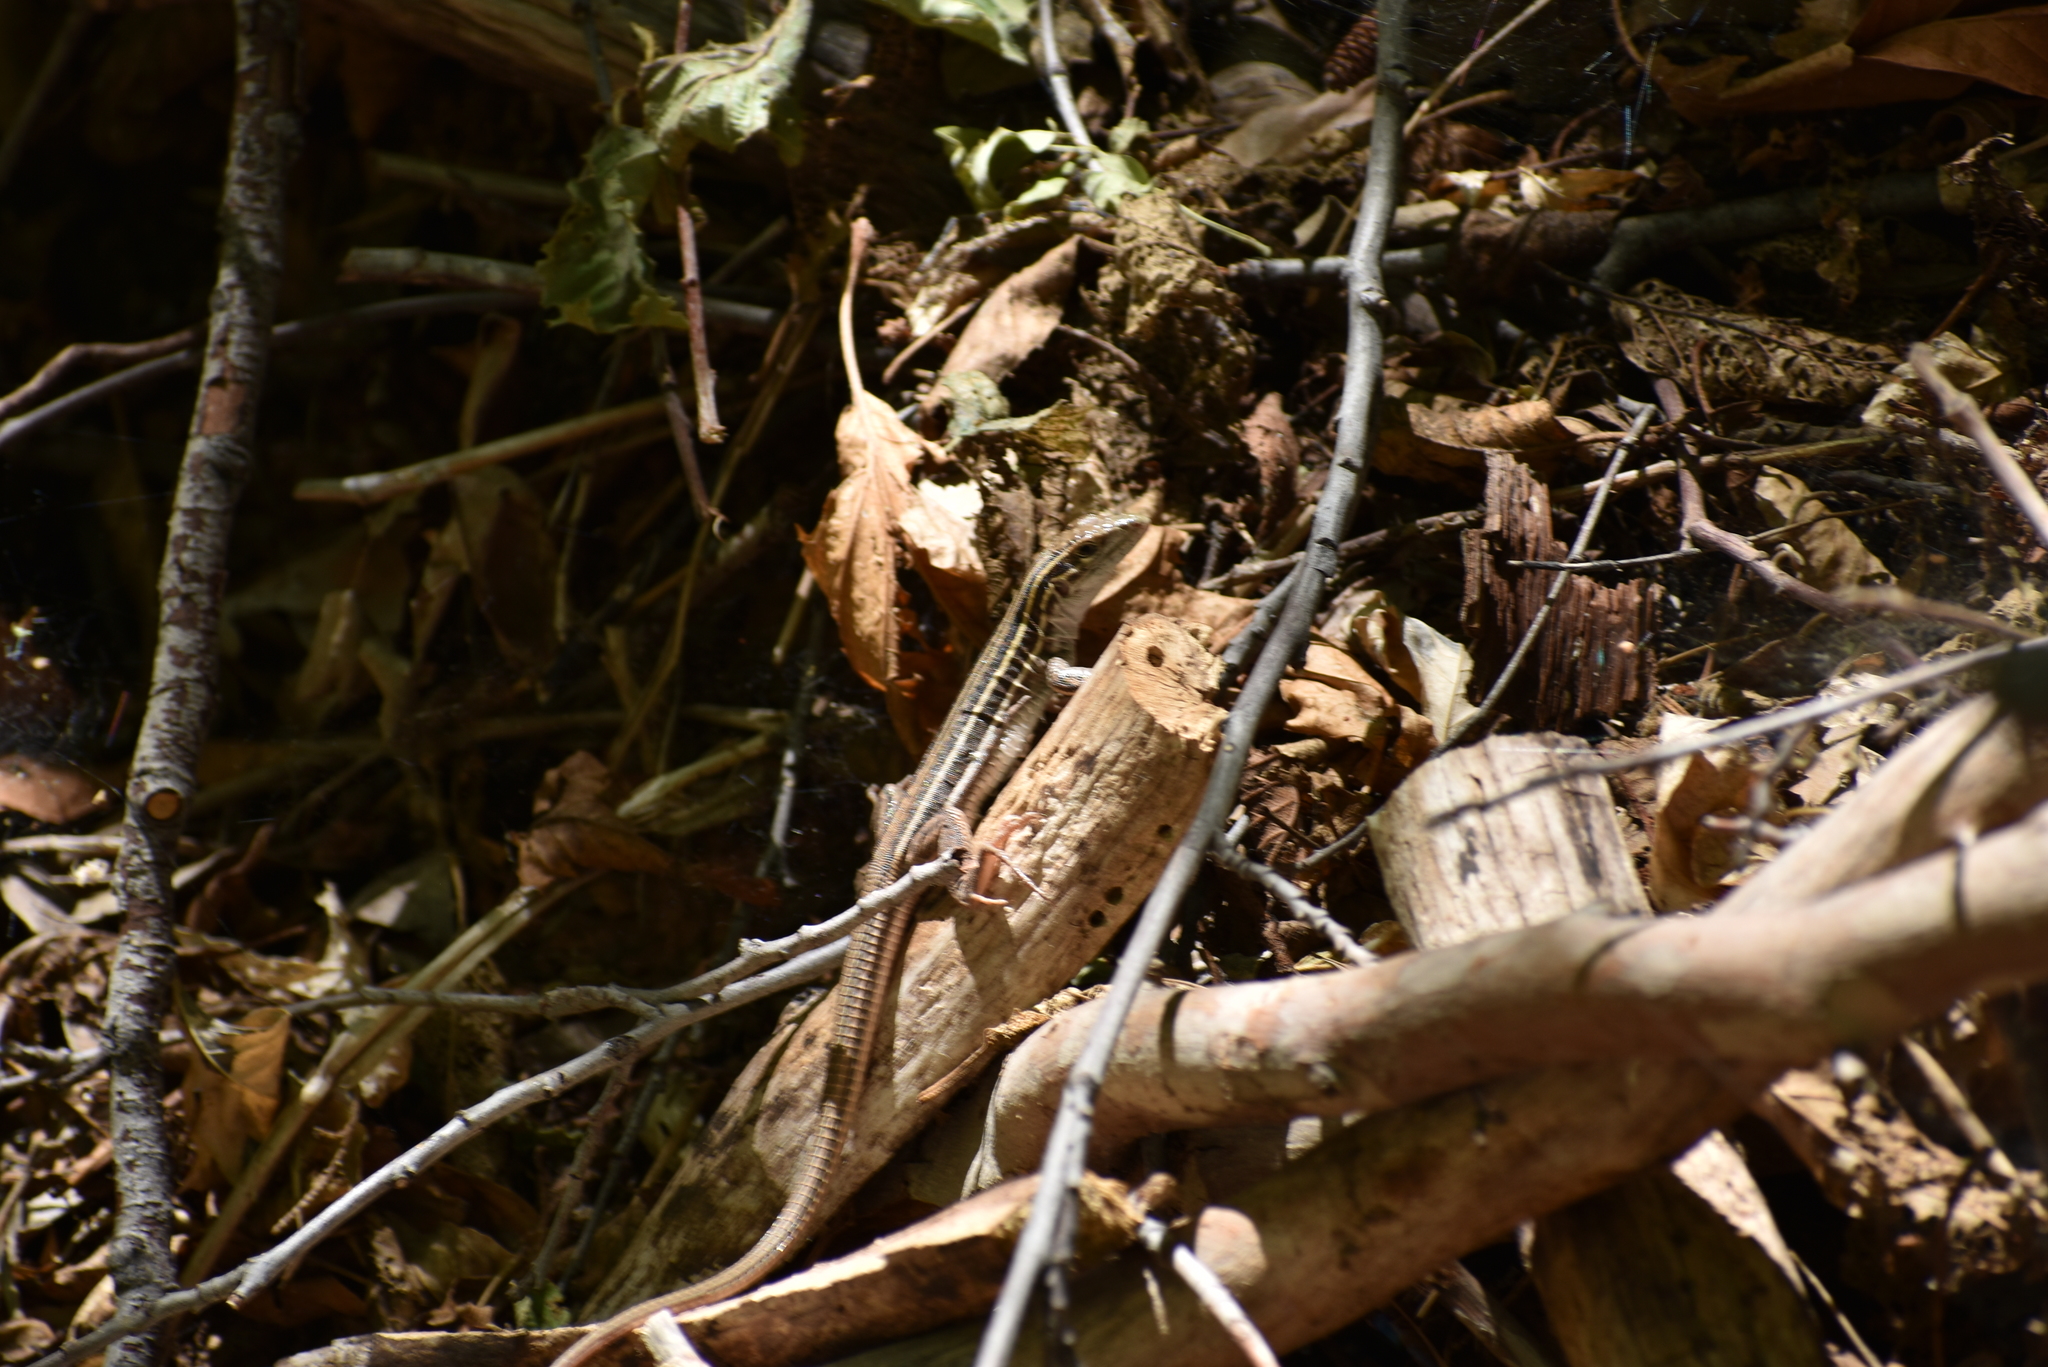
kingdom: Animalia
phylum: Chordata
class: Squamata
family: Teiidae
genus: Aspidoscelis
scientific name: Aspidoscelis uniparens
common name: Desert grassland whiptail
